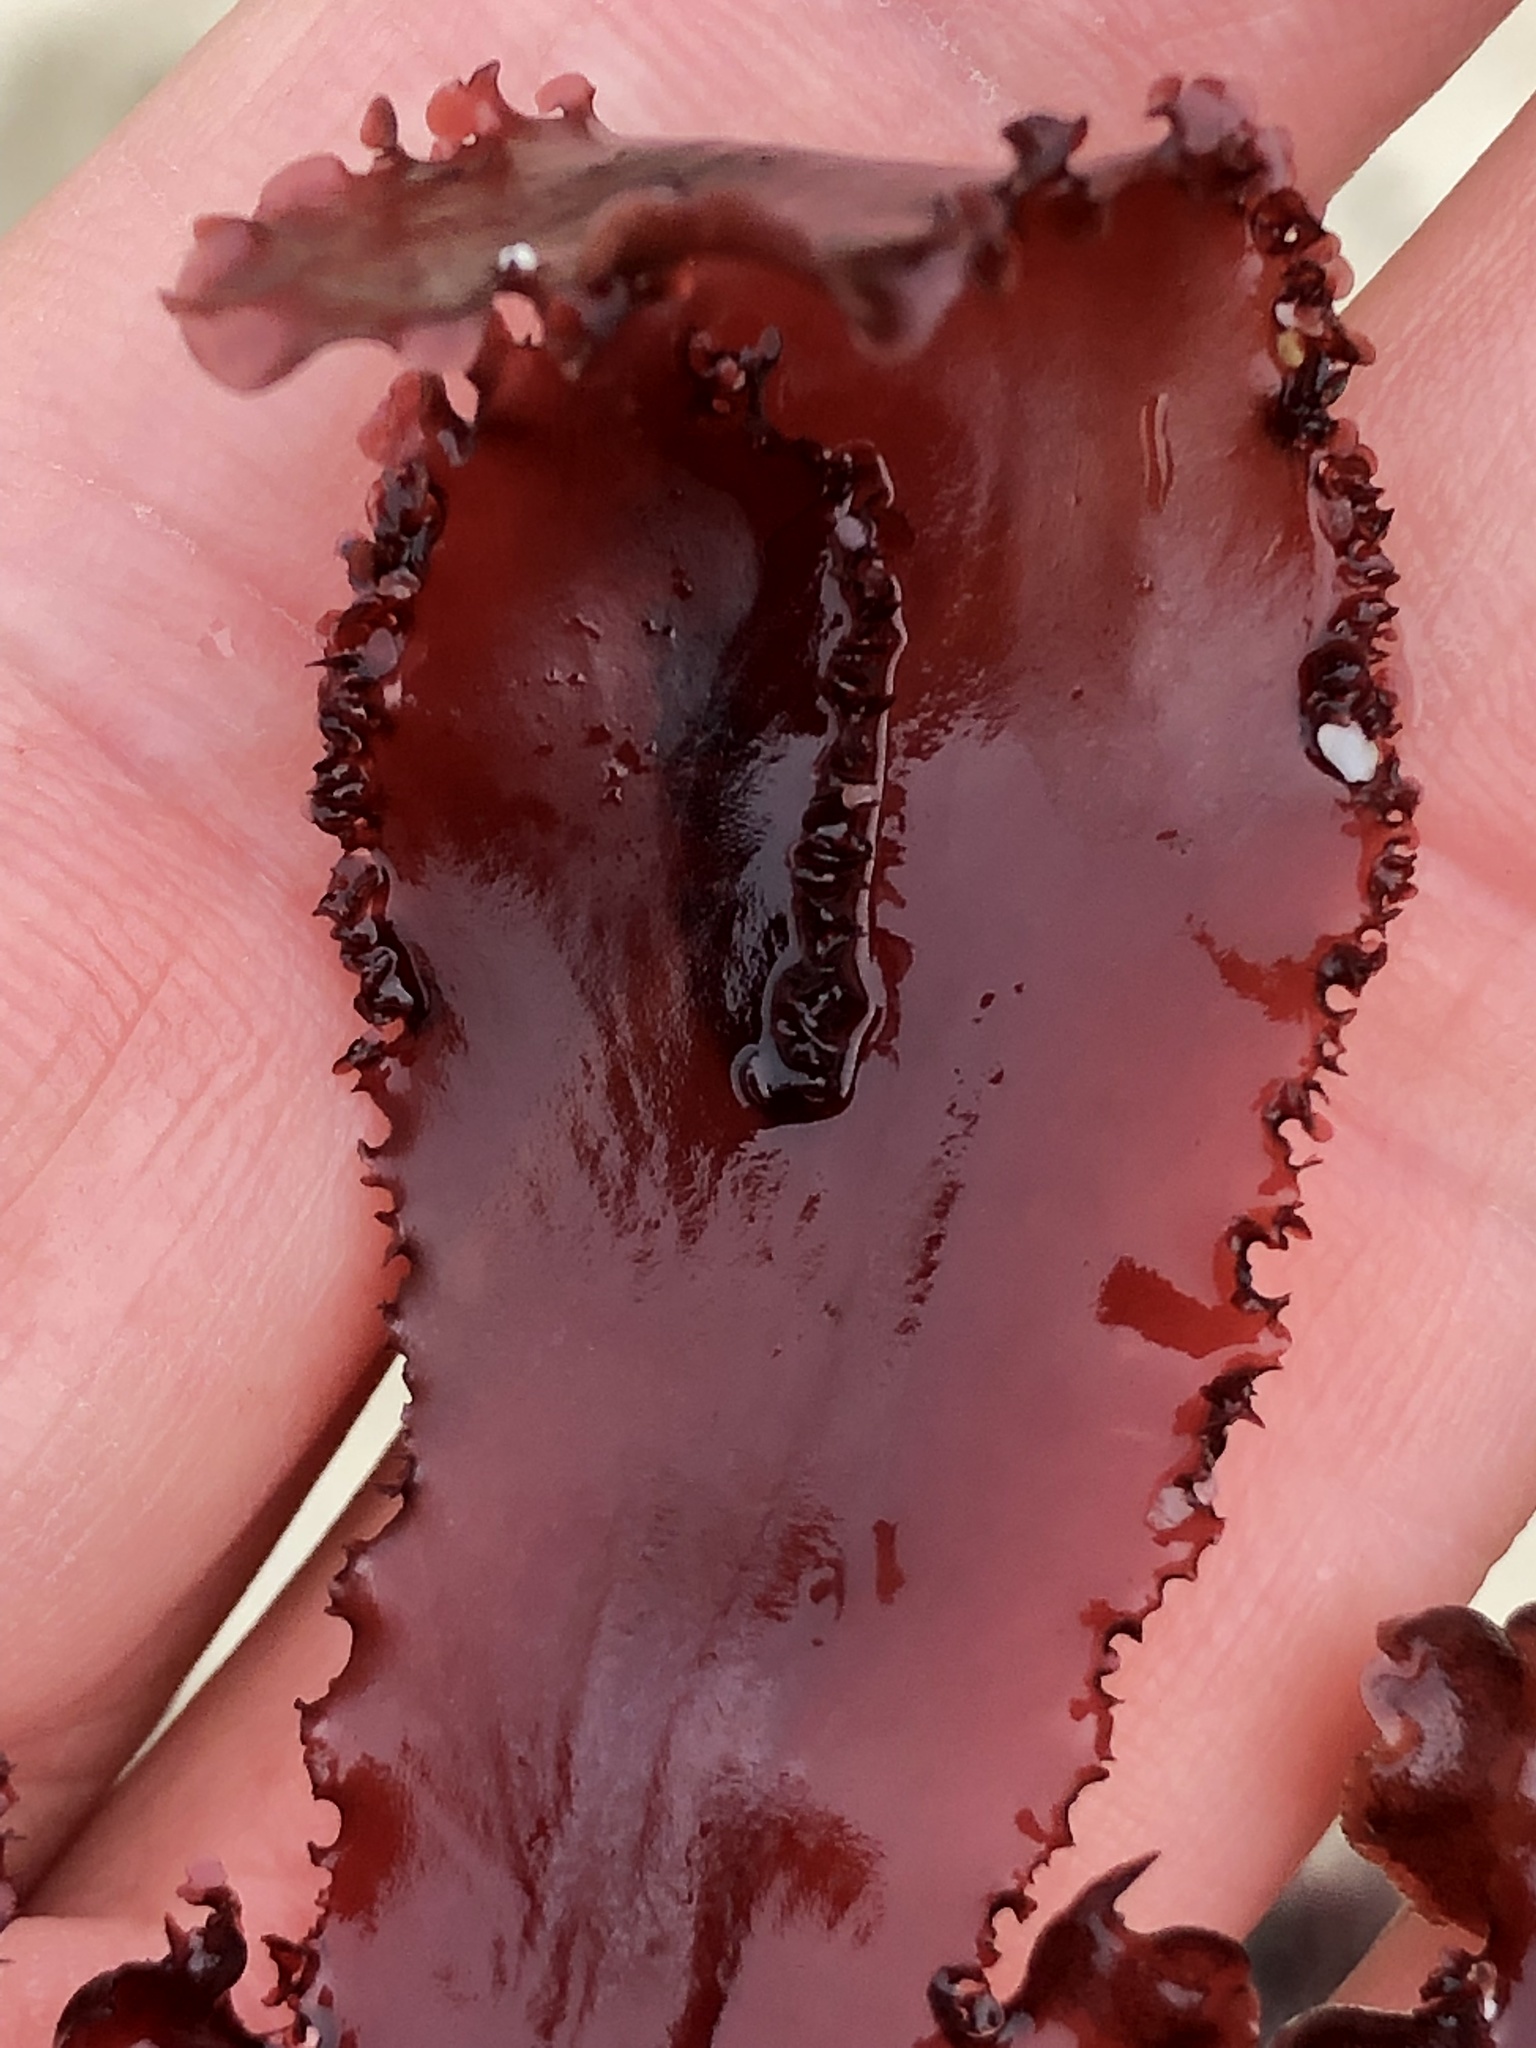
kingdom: Plantae
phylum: Rhodophyta
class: Florideophyceae
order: Ceramiales
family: Delesseriaceae
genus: Cryptopleura
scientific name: Cryptopleura ruprechtiana
